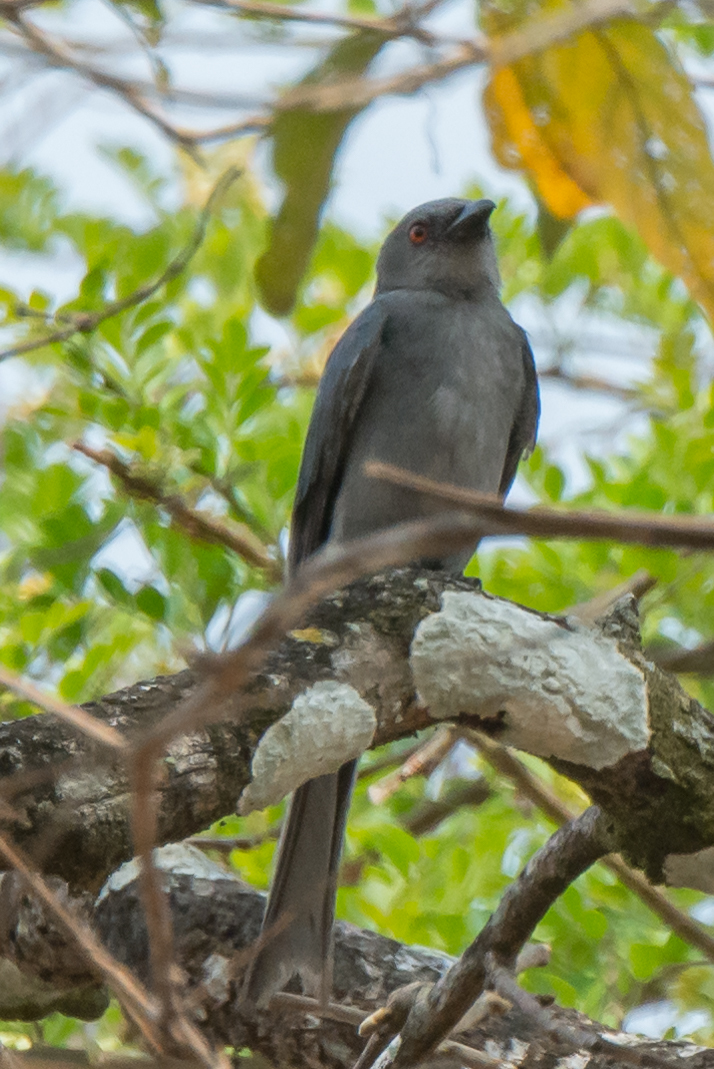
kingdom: Animalia
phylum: Chordata
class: Aves
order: Passeriformes
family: Dicruridae
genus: Dicrurus
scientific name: Dicrurus leucophaeus
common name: Ashy drongo
